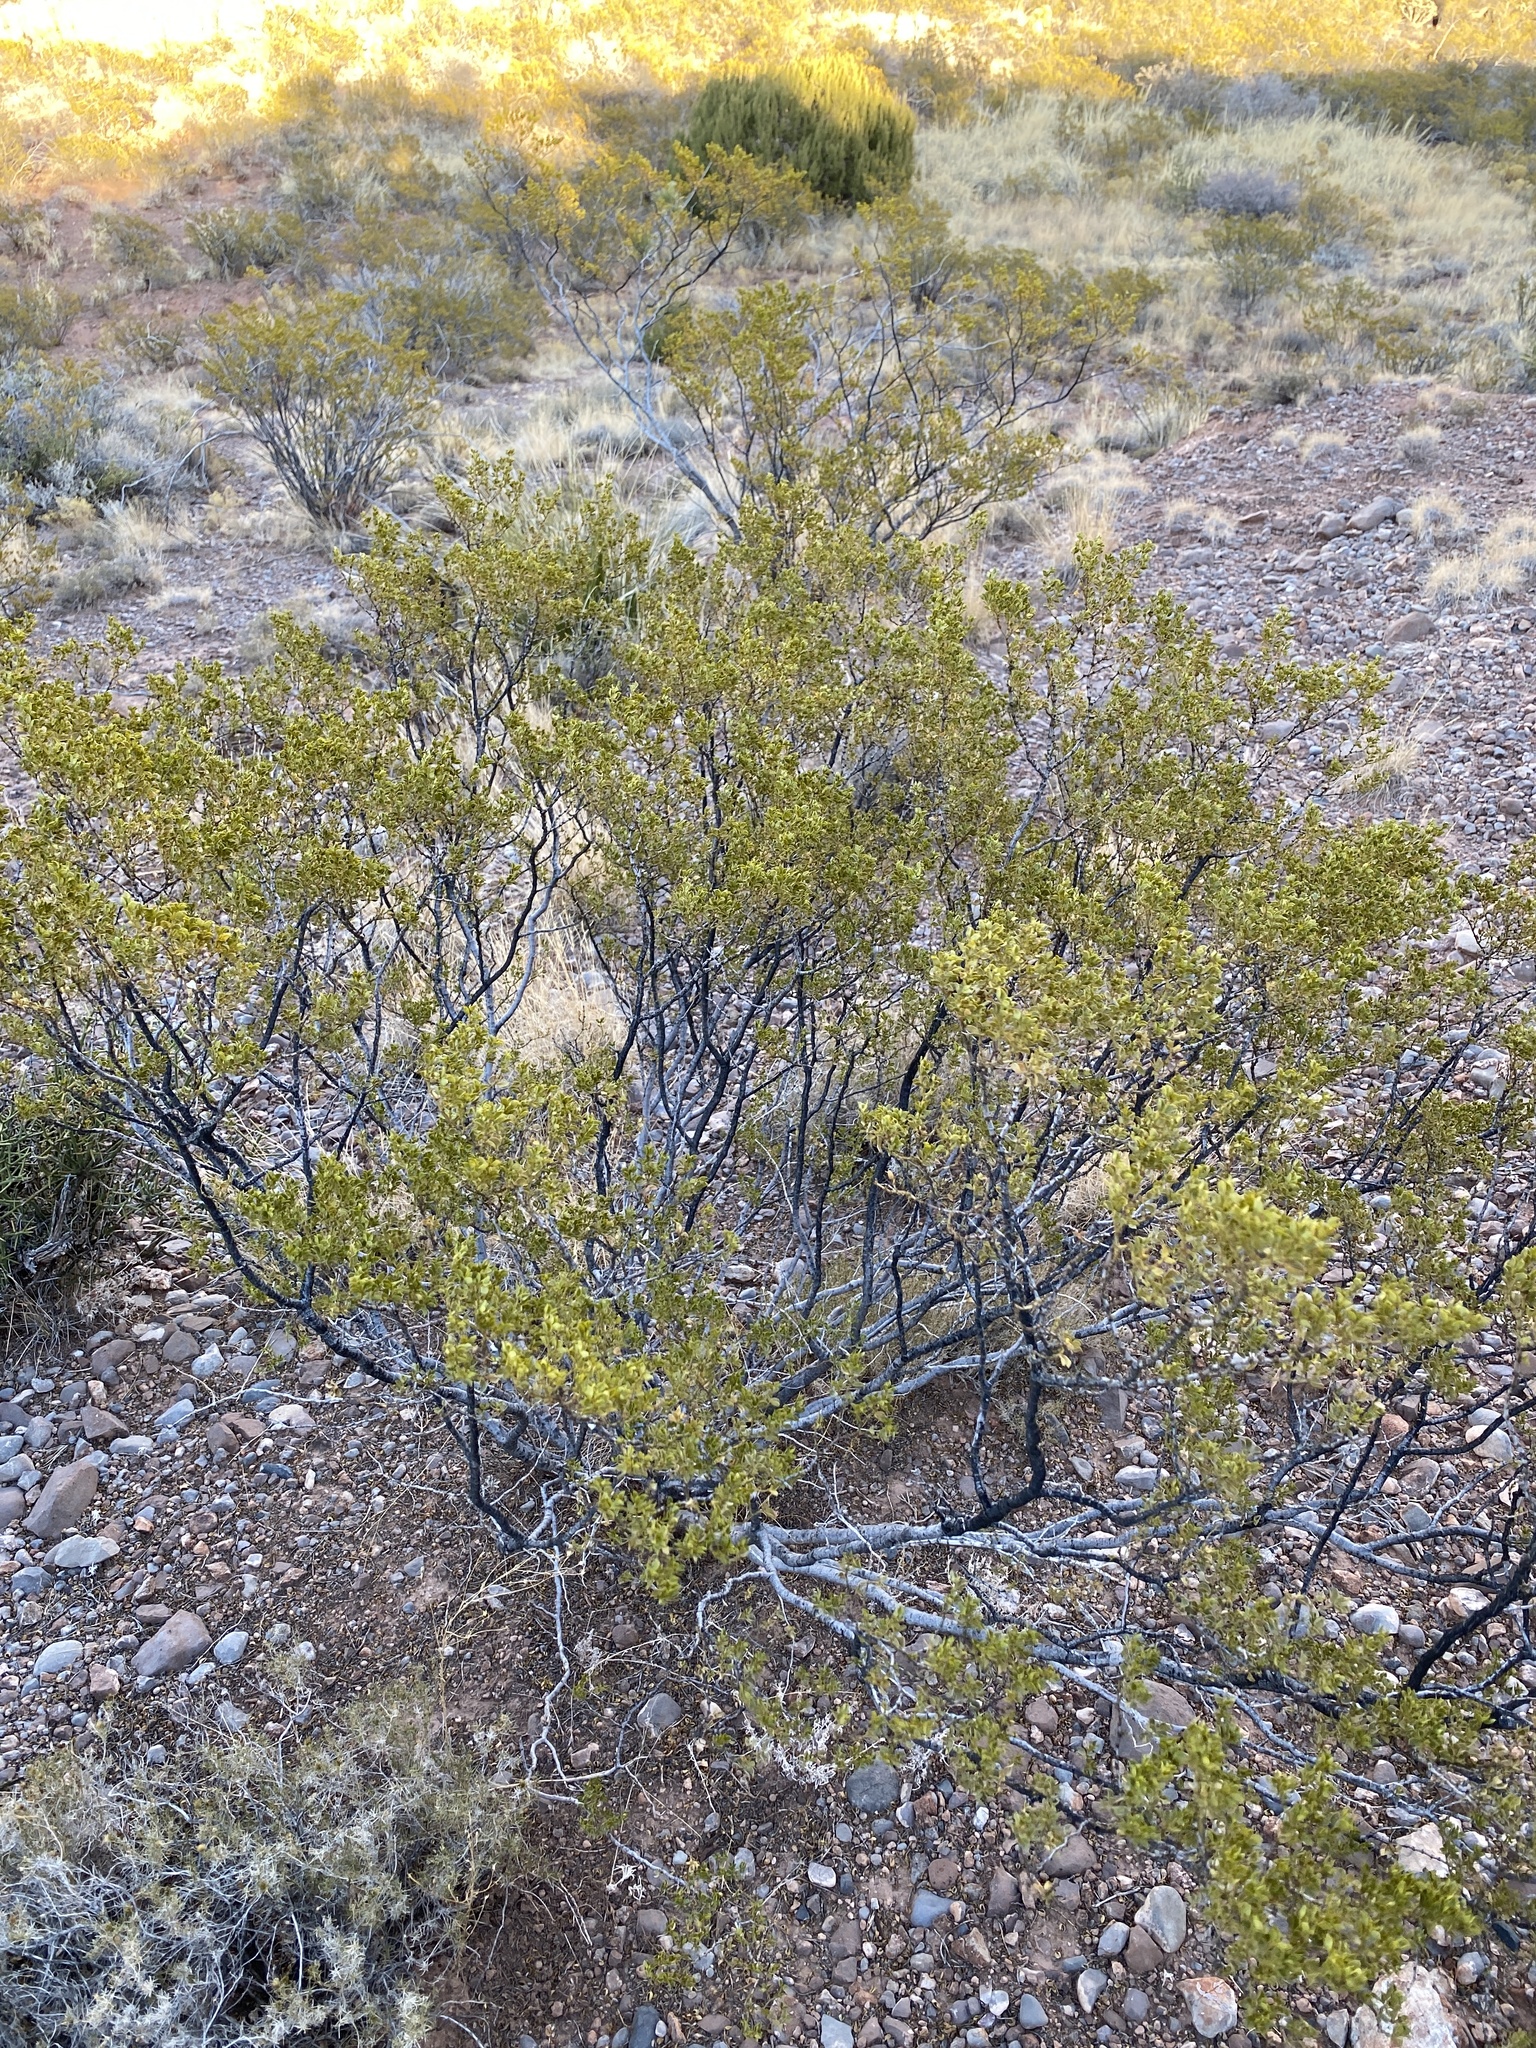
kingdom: Plantae
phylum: Tracheophyta
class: Magnoliopsida
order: Zygophyllales
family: Zygophyllaceae
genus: Larrea
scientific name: Larrea tridentata
